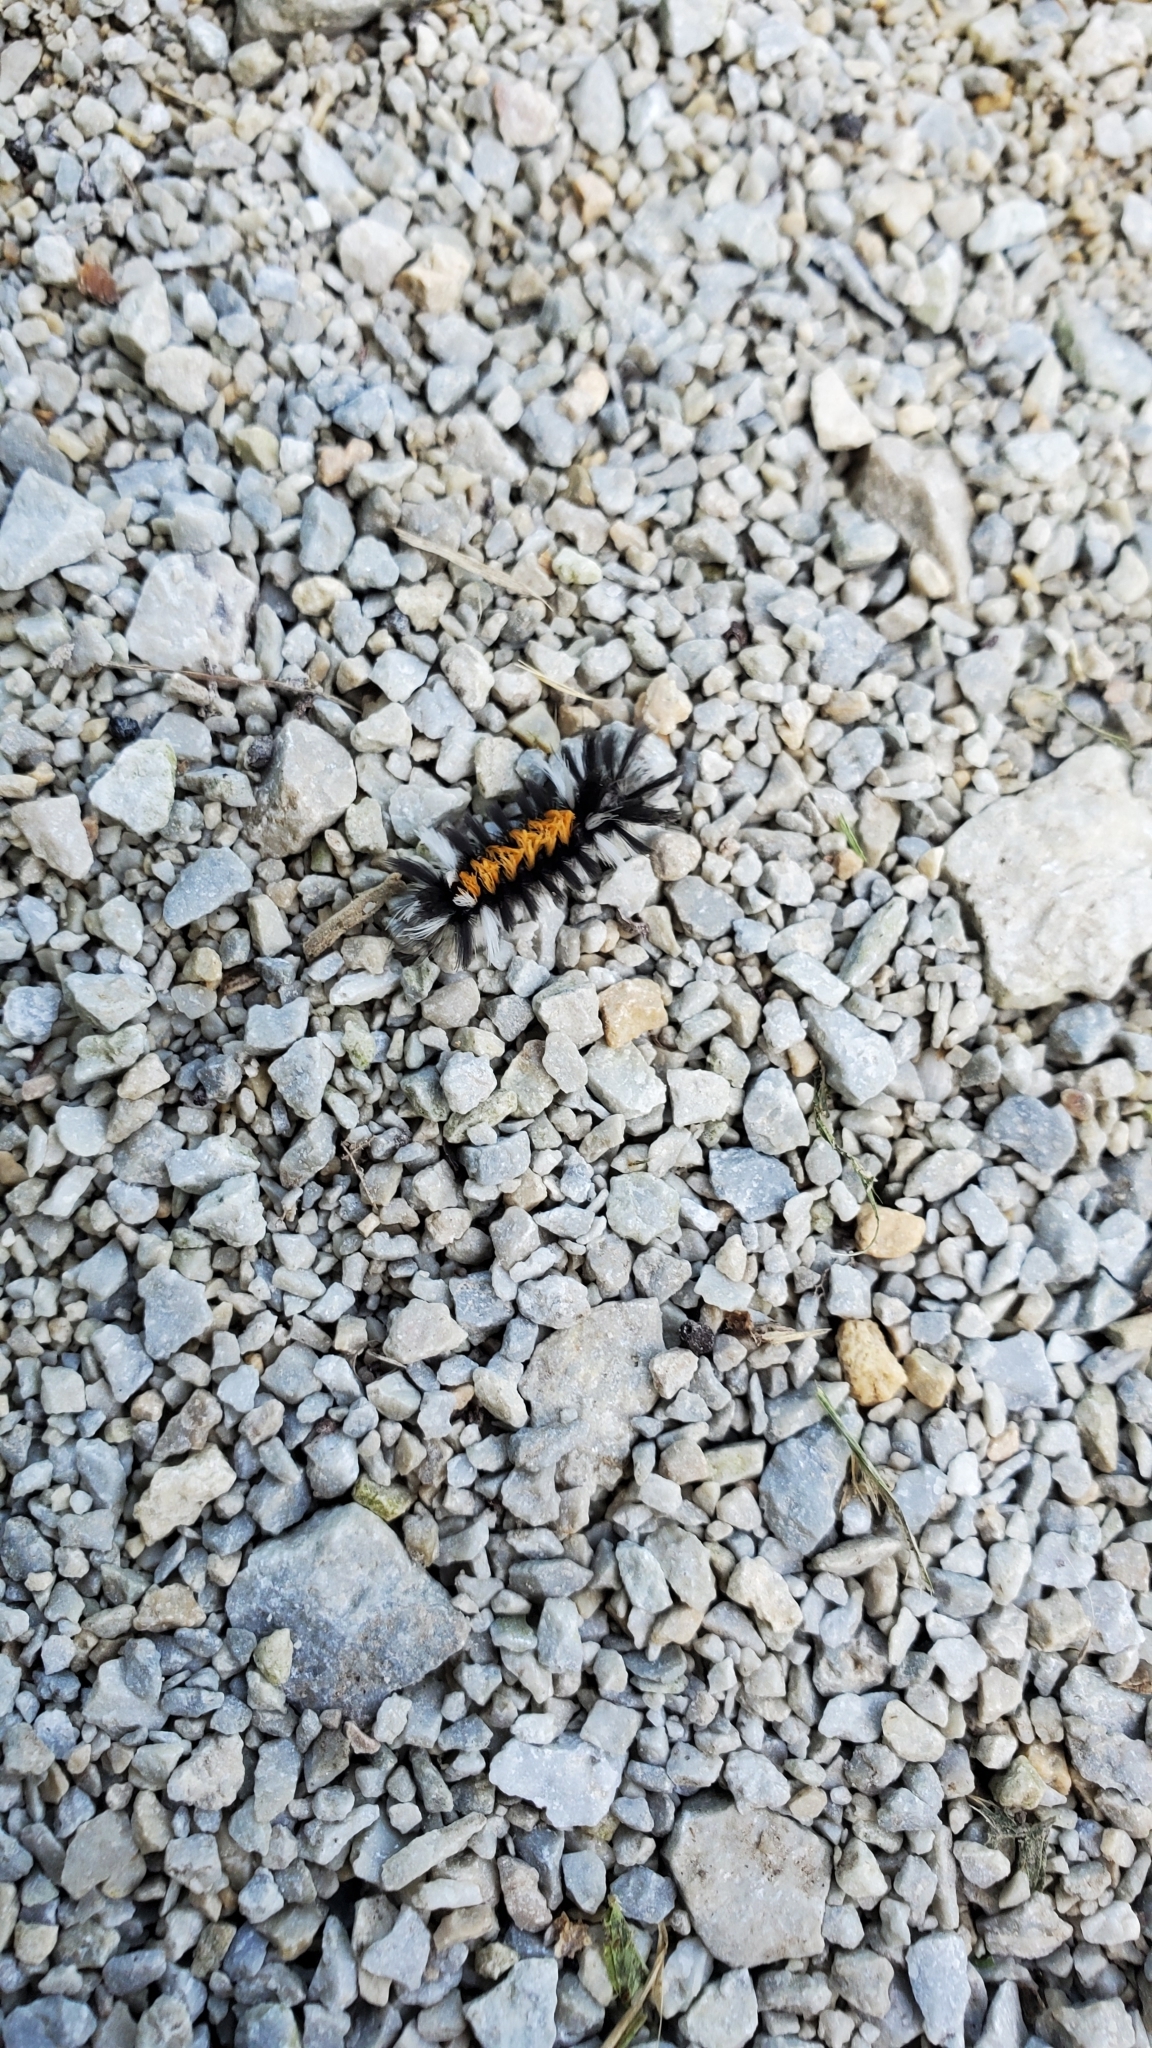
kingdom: Animalia
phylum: Arthropoda
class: Insecta
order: Lepidoptera
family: Erebidae
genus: Euchaetes
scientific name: Euchaetes egle
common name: Milkweed tussock moth
